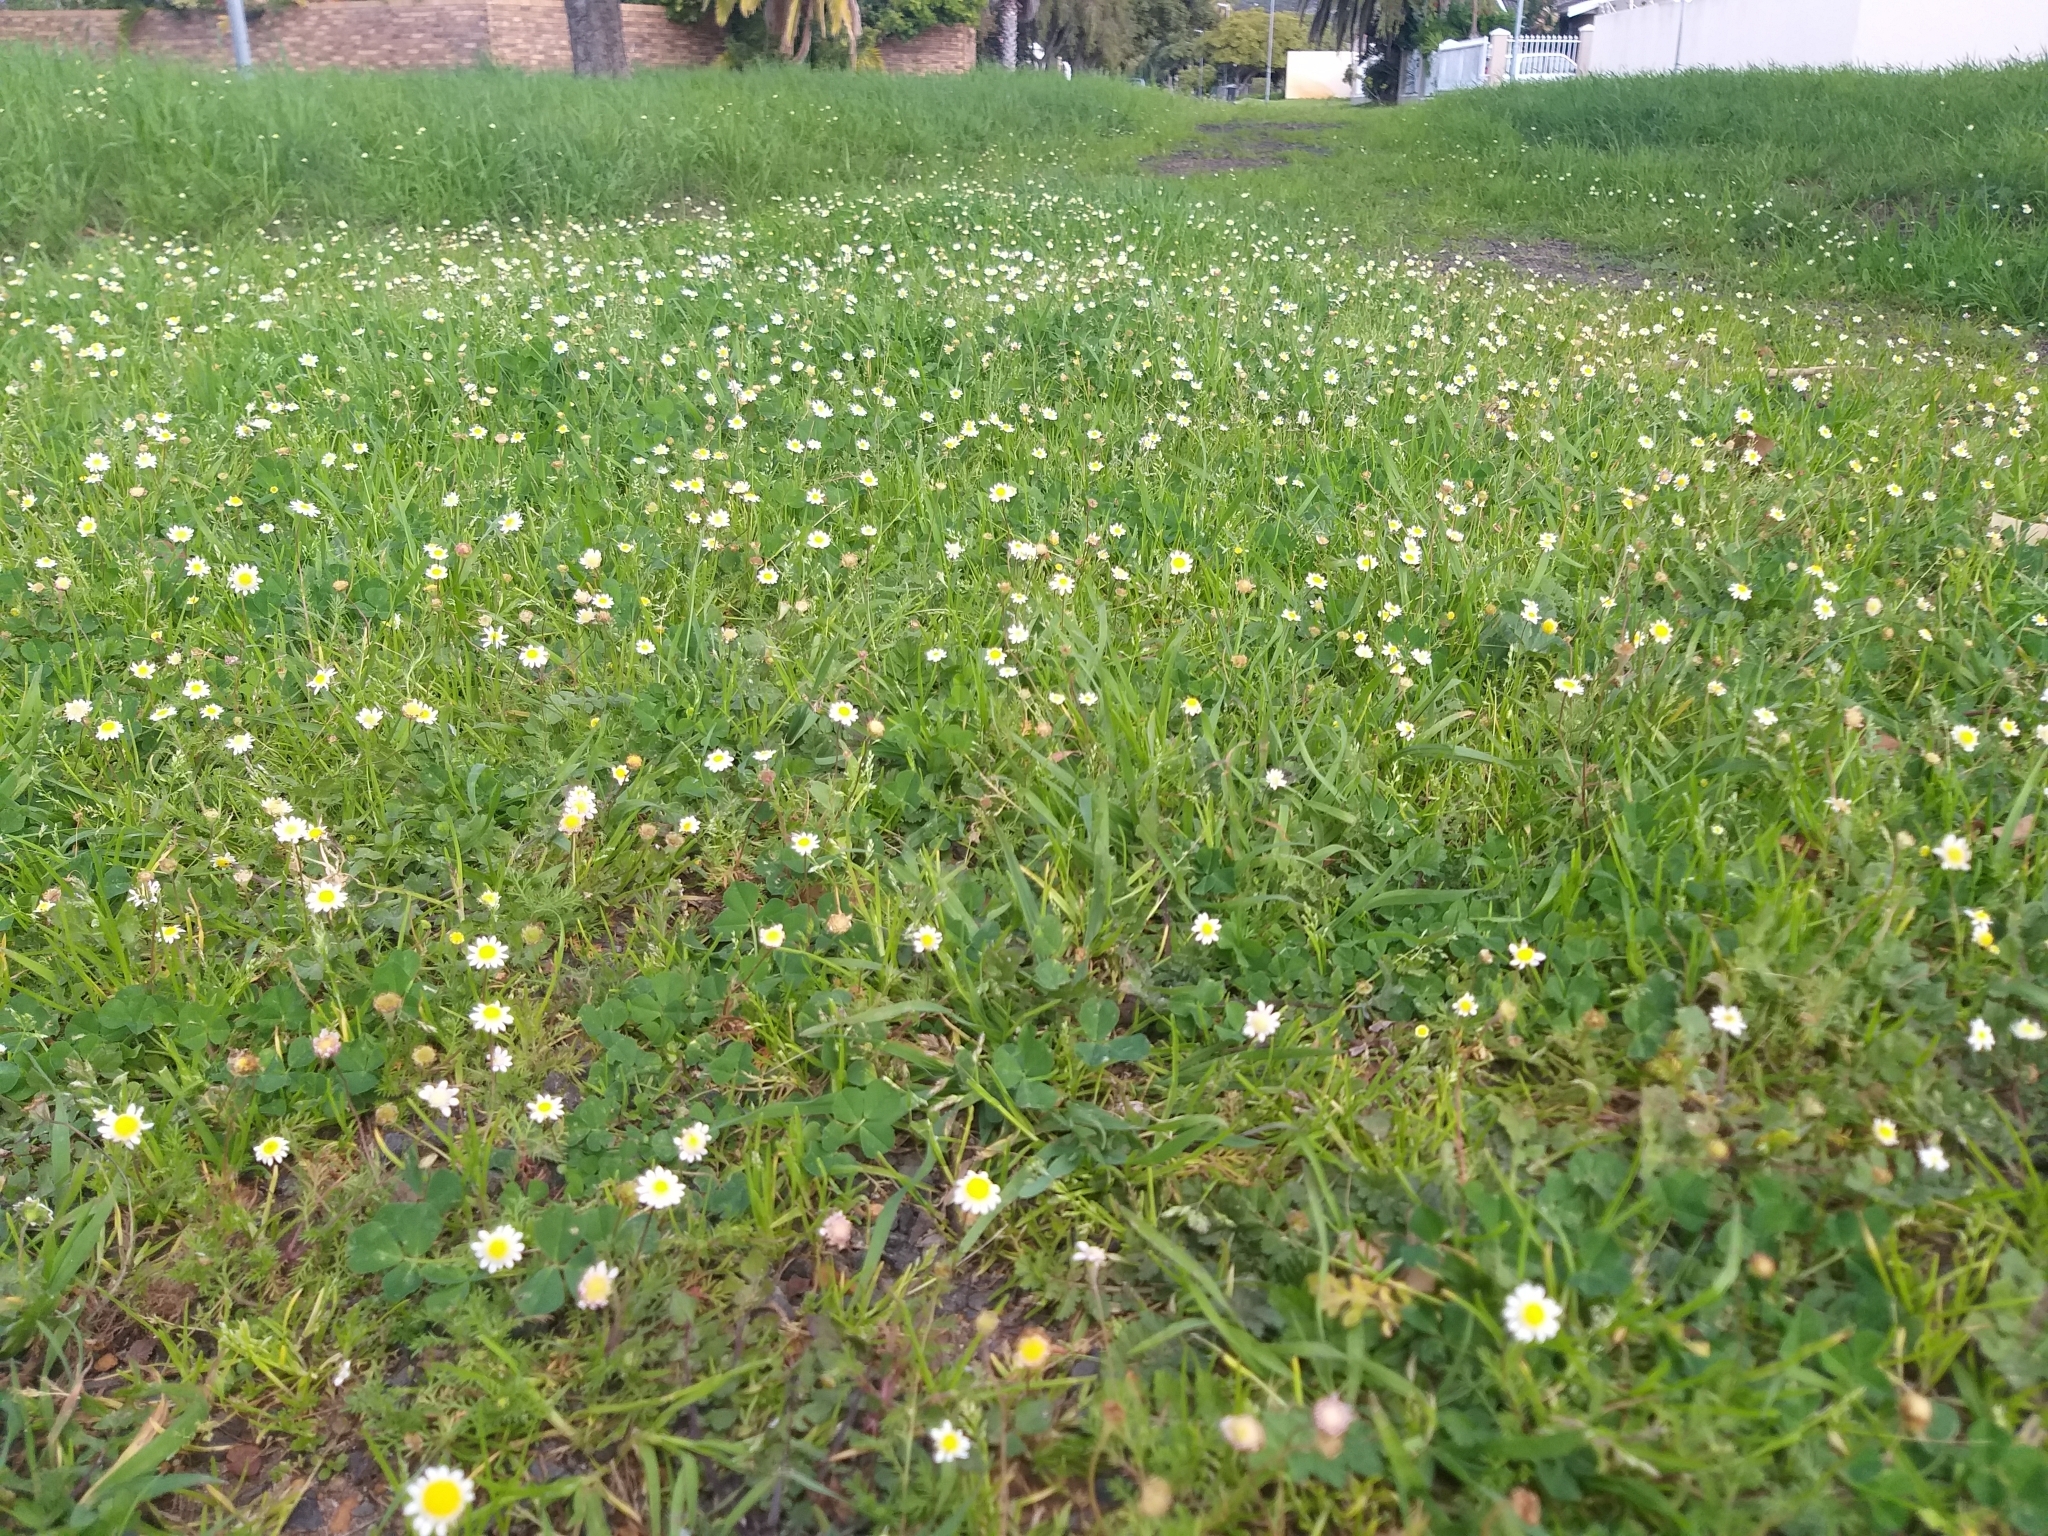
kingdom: Plantae
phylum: Tracheophyta
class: Magnoliopsida
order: Asterales
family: Asteraceae
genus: Cotula
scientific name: Cotula turbinata
